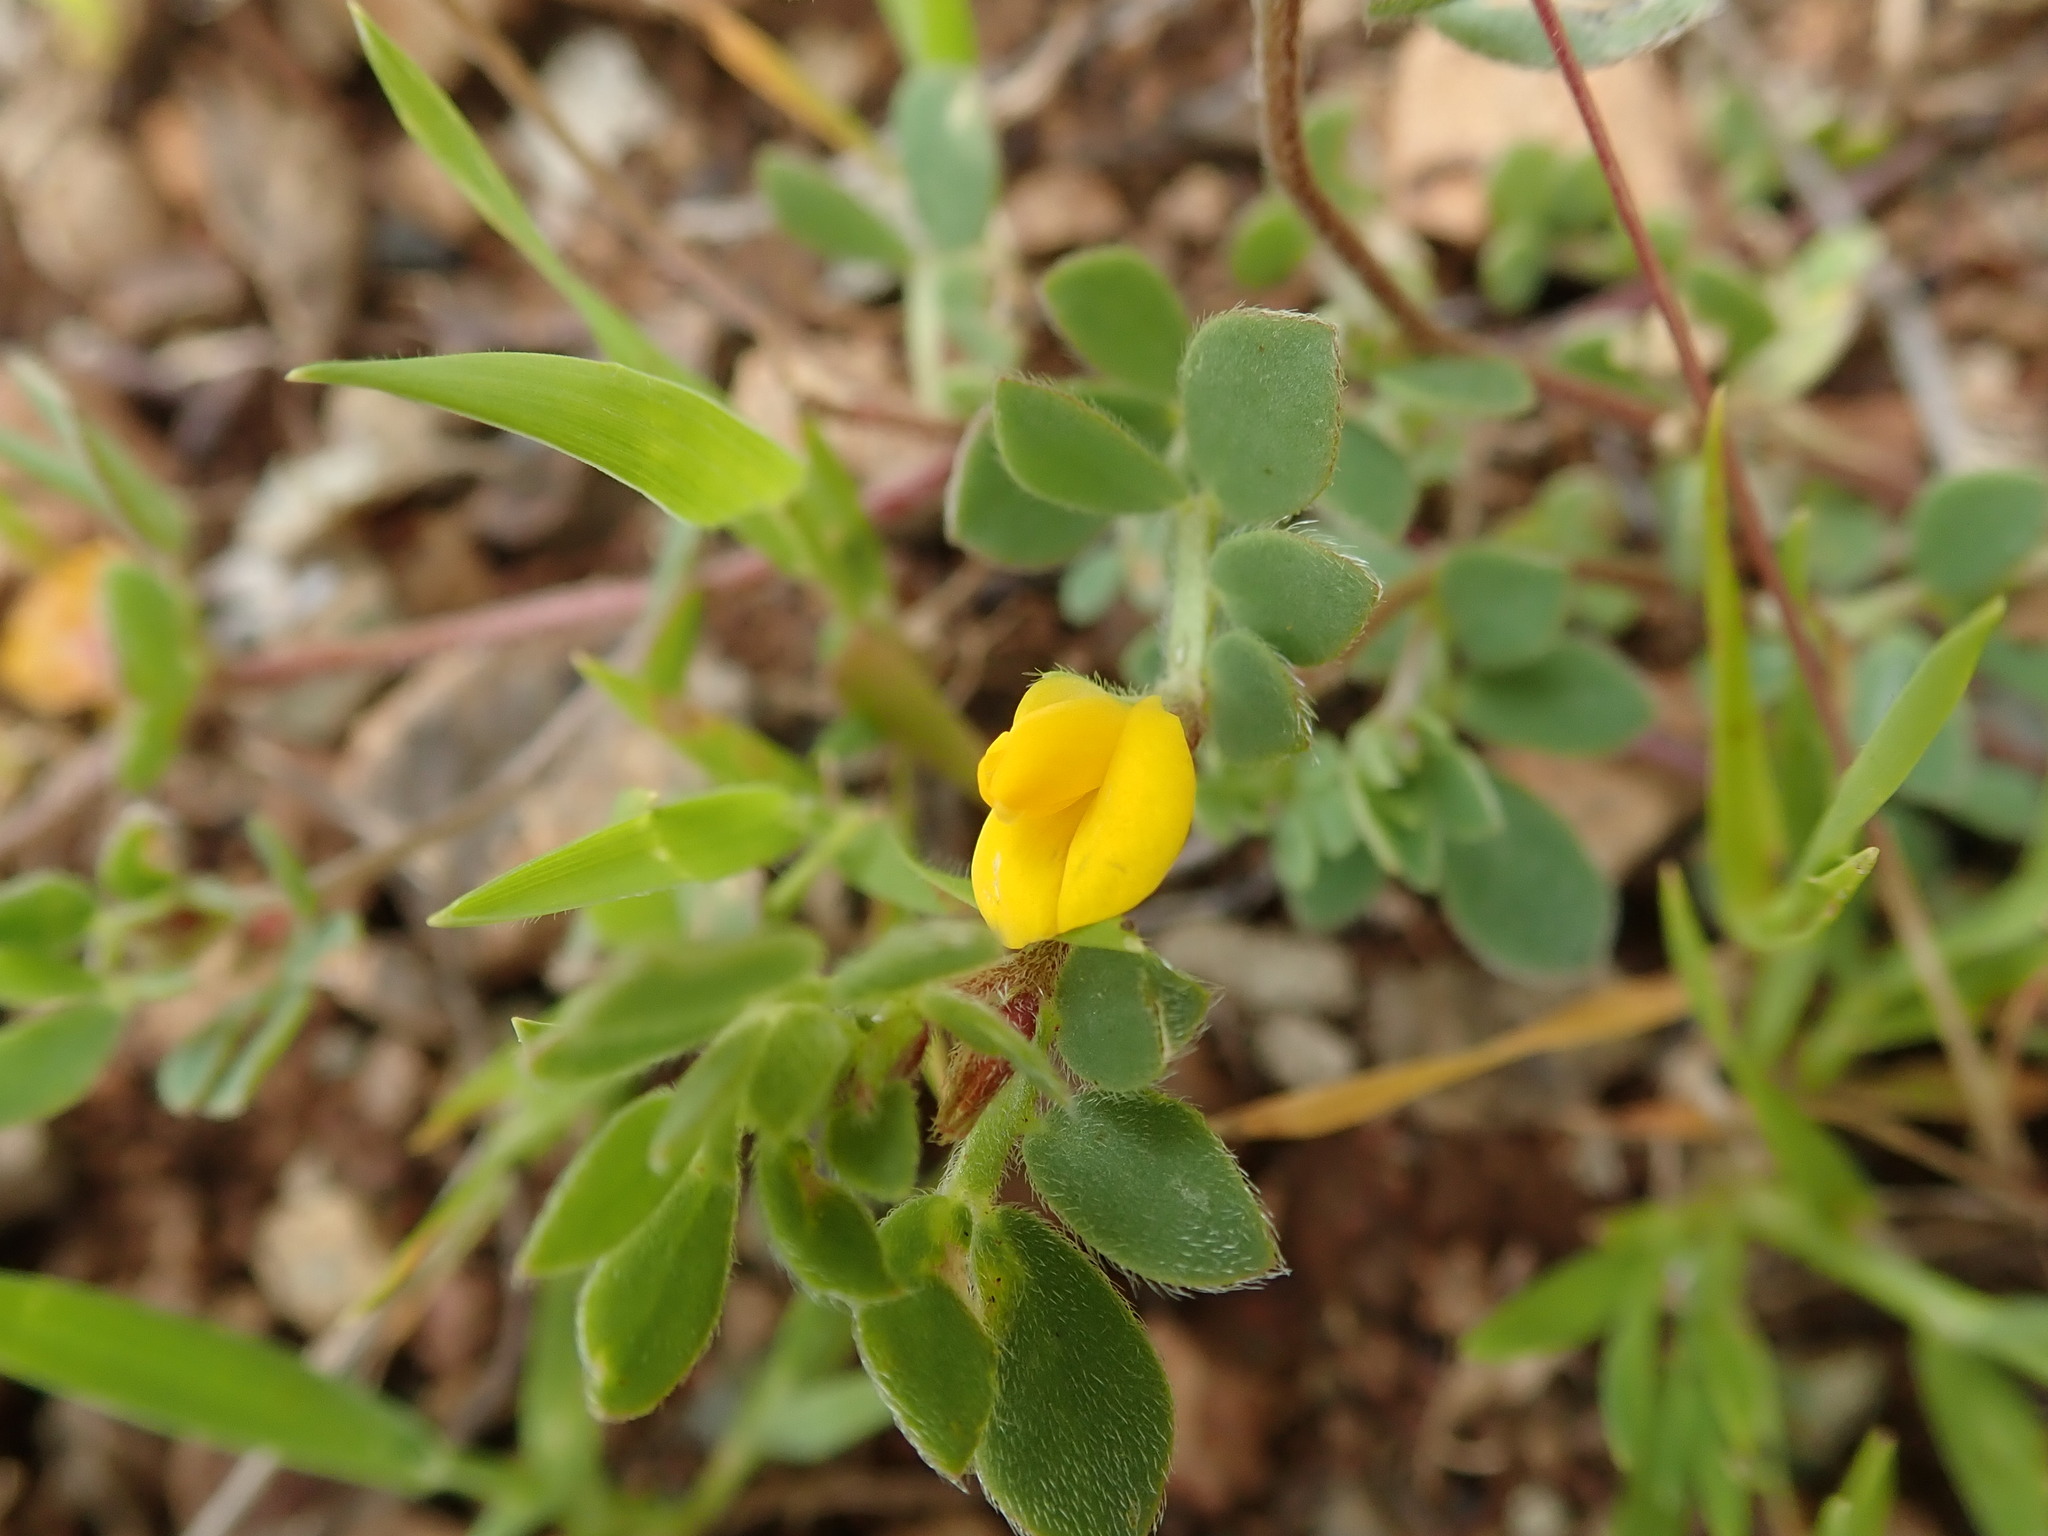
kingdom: Plantae
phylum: Tracheophyta
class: Magnoliopsida
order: Fabales
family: Fabaceae
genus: Acmispon
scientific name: Acmispon wrangelianus
